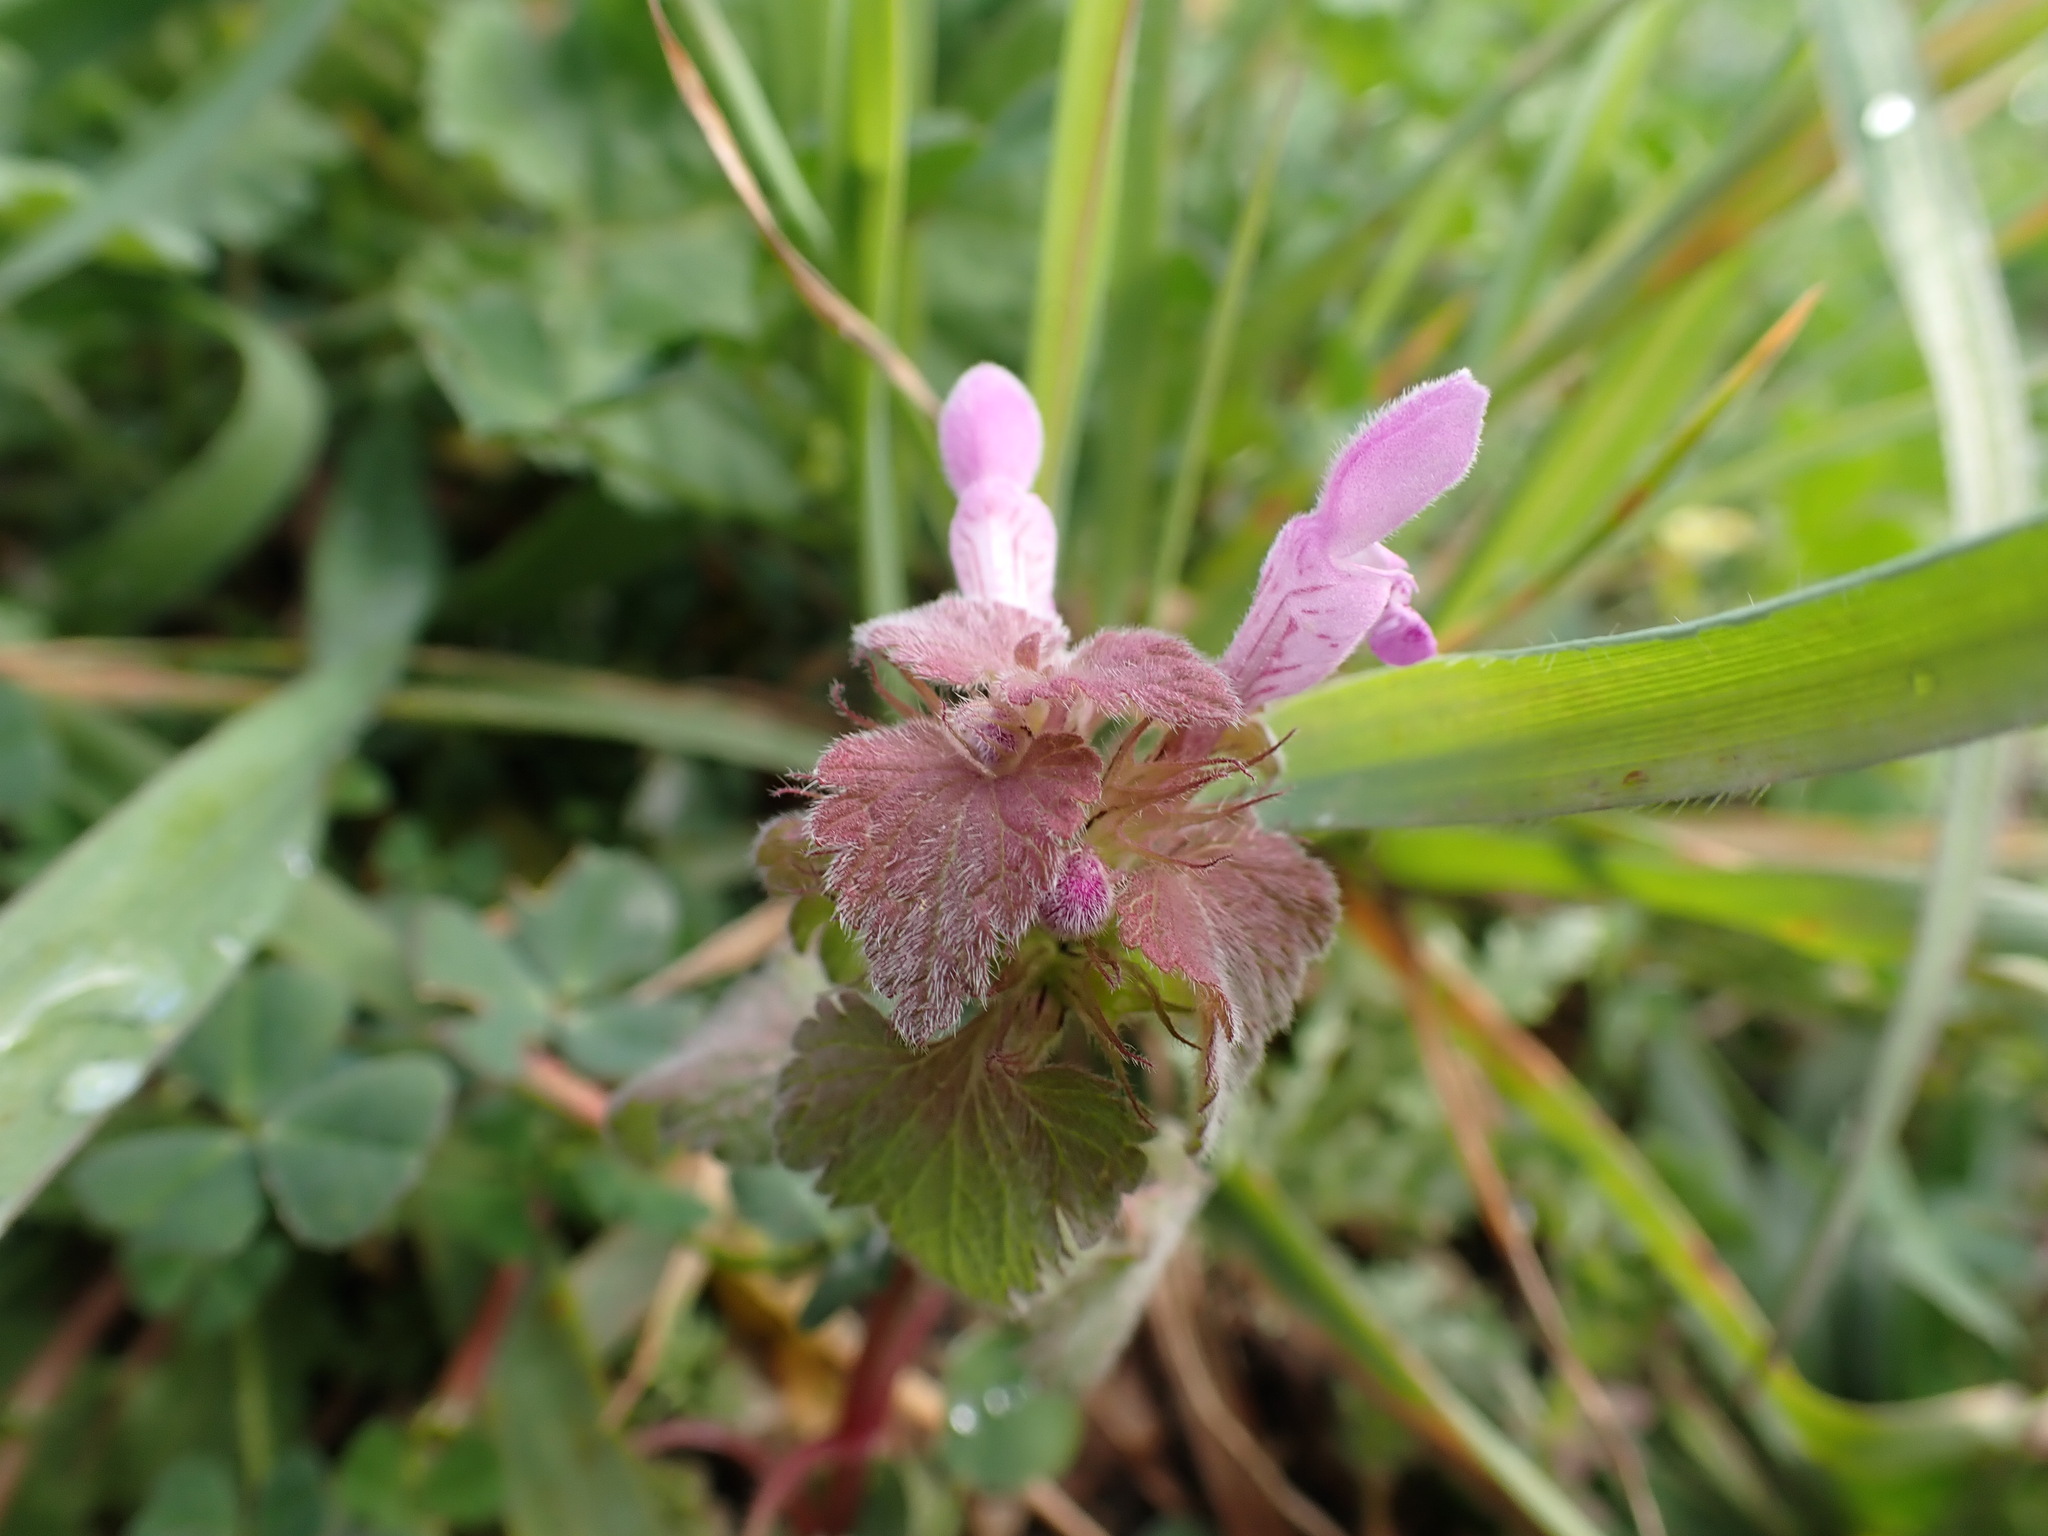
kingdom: Plantae
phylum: Tracheophyta
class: Magnoliopsida
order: Lamiales
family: Lamiaceae
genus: Lamium
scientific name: Lamium purpureum
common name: Red dead-nettle
